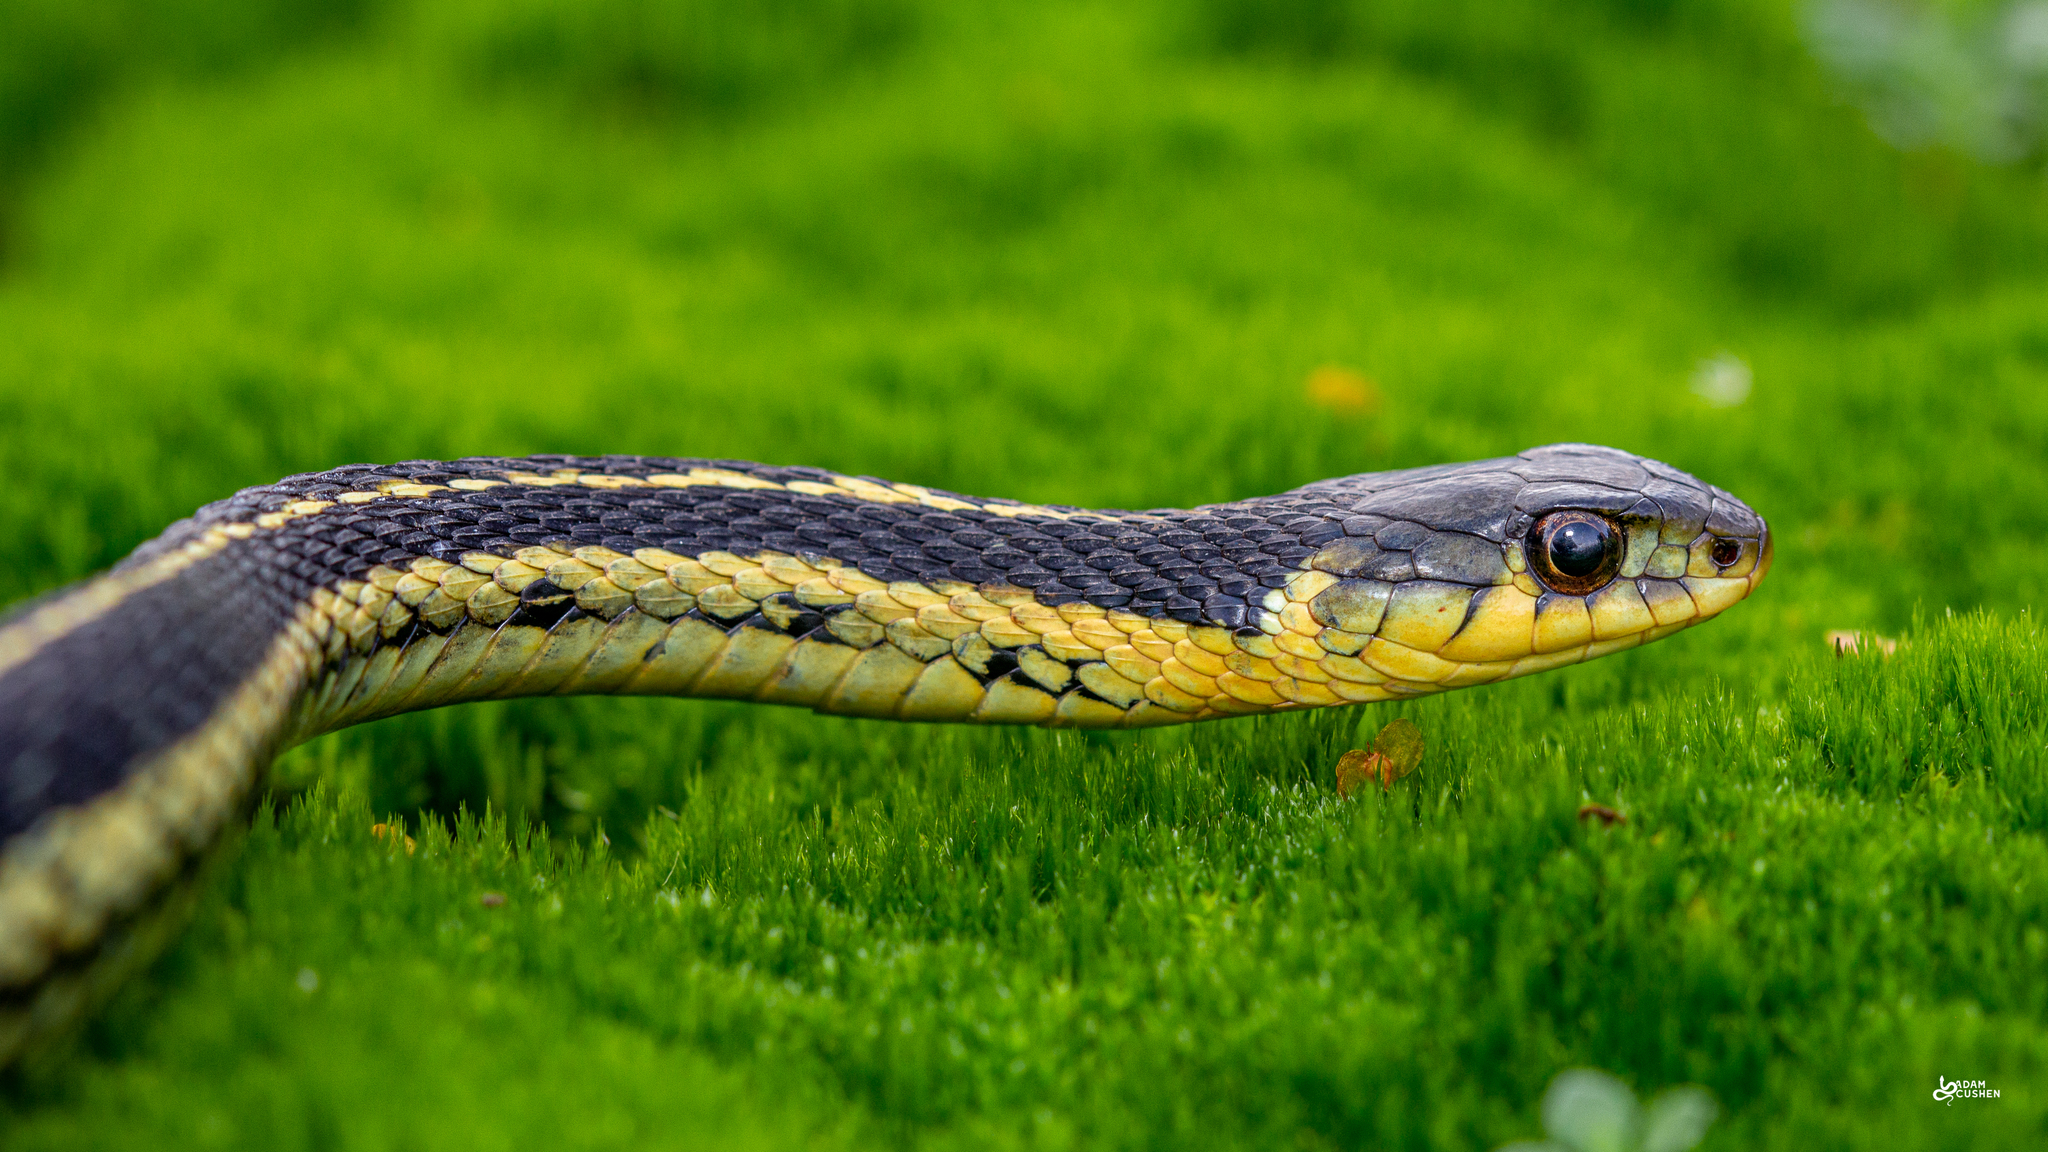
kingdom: Animalia
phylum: Chordata
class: Squamata
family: Colubridae
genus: Thamnophis
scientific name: Thamnophis sirtalis
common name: Common garter snake
